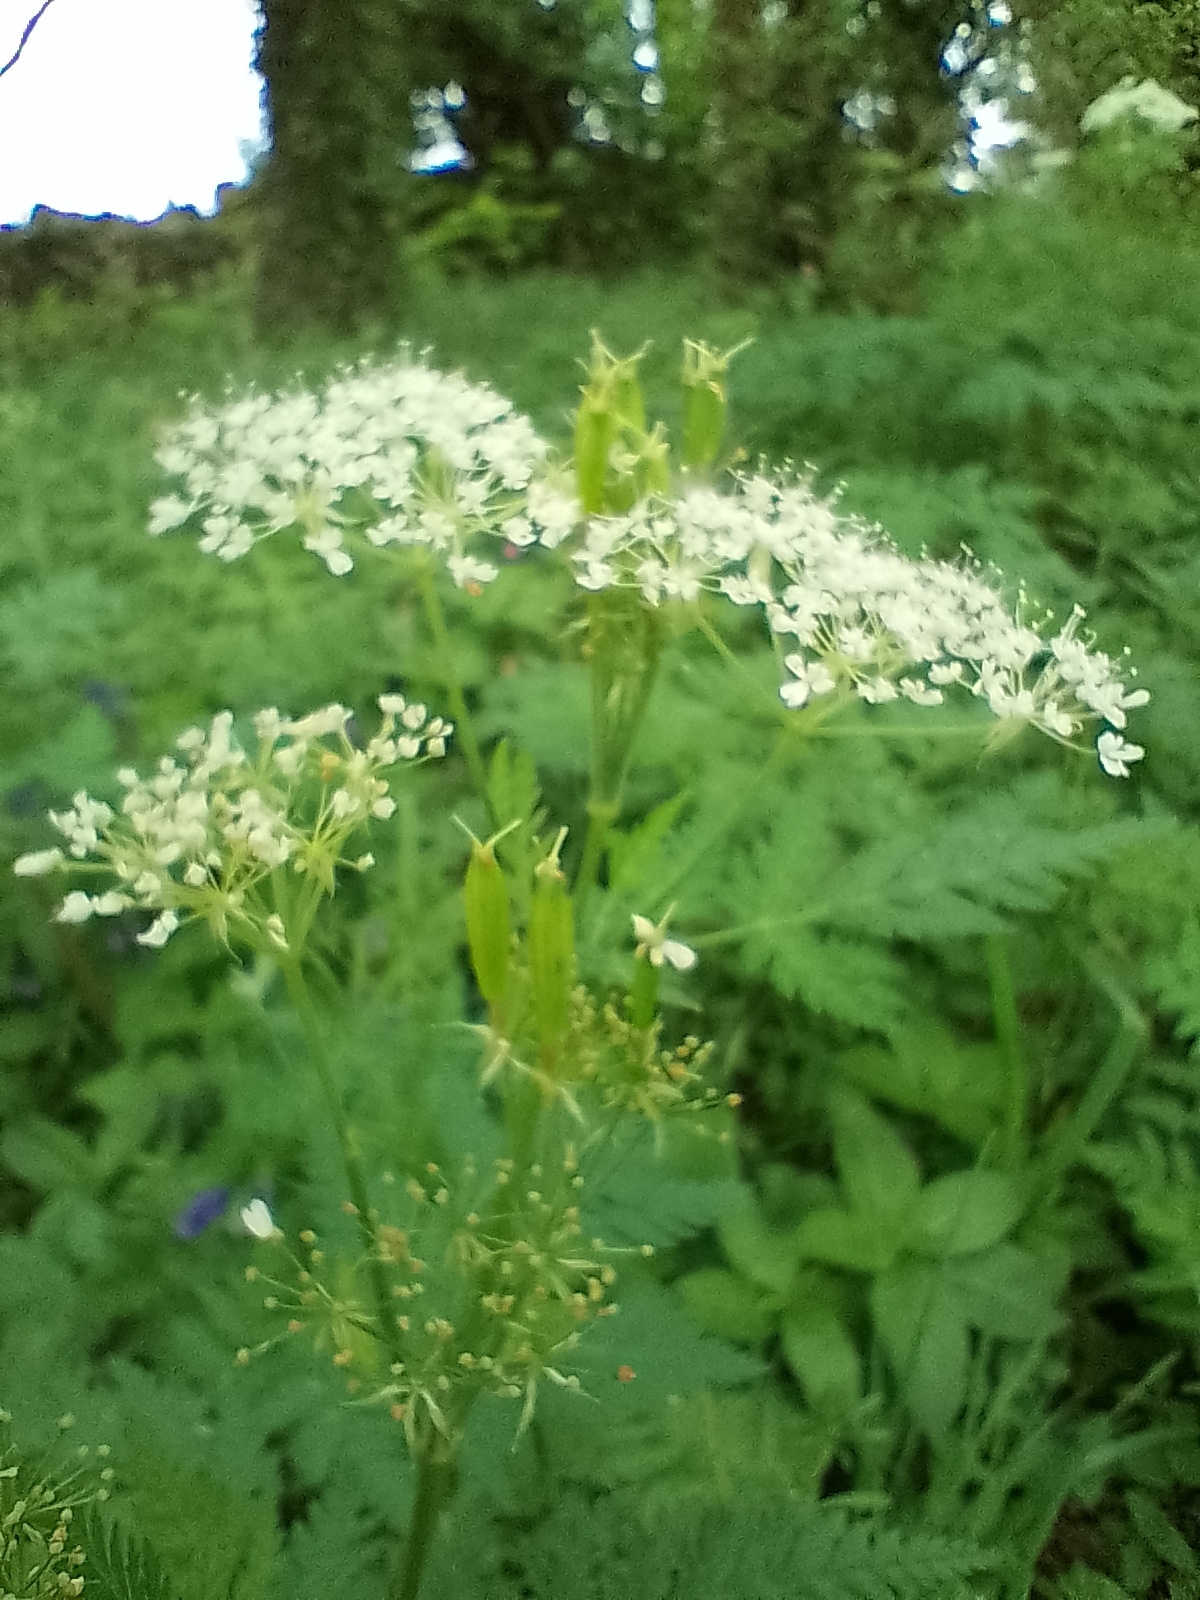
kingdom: Plantae
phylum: Tracheophyta
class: Magnoliopsida
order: Apiales
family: Apiaceae
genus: Myrrhis
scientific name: Myrrhis odorata
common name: Sweet cicely
